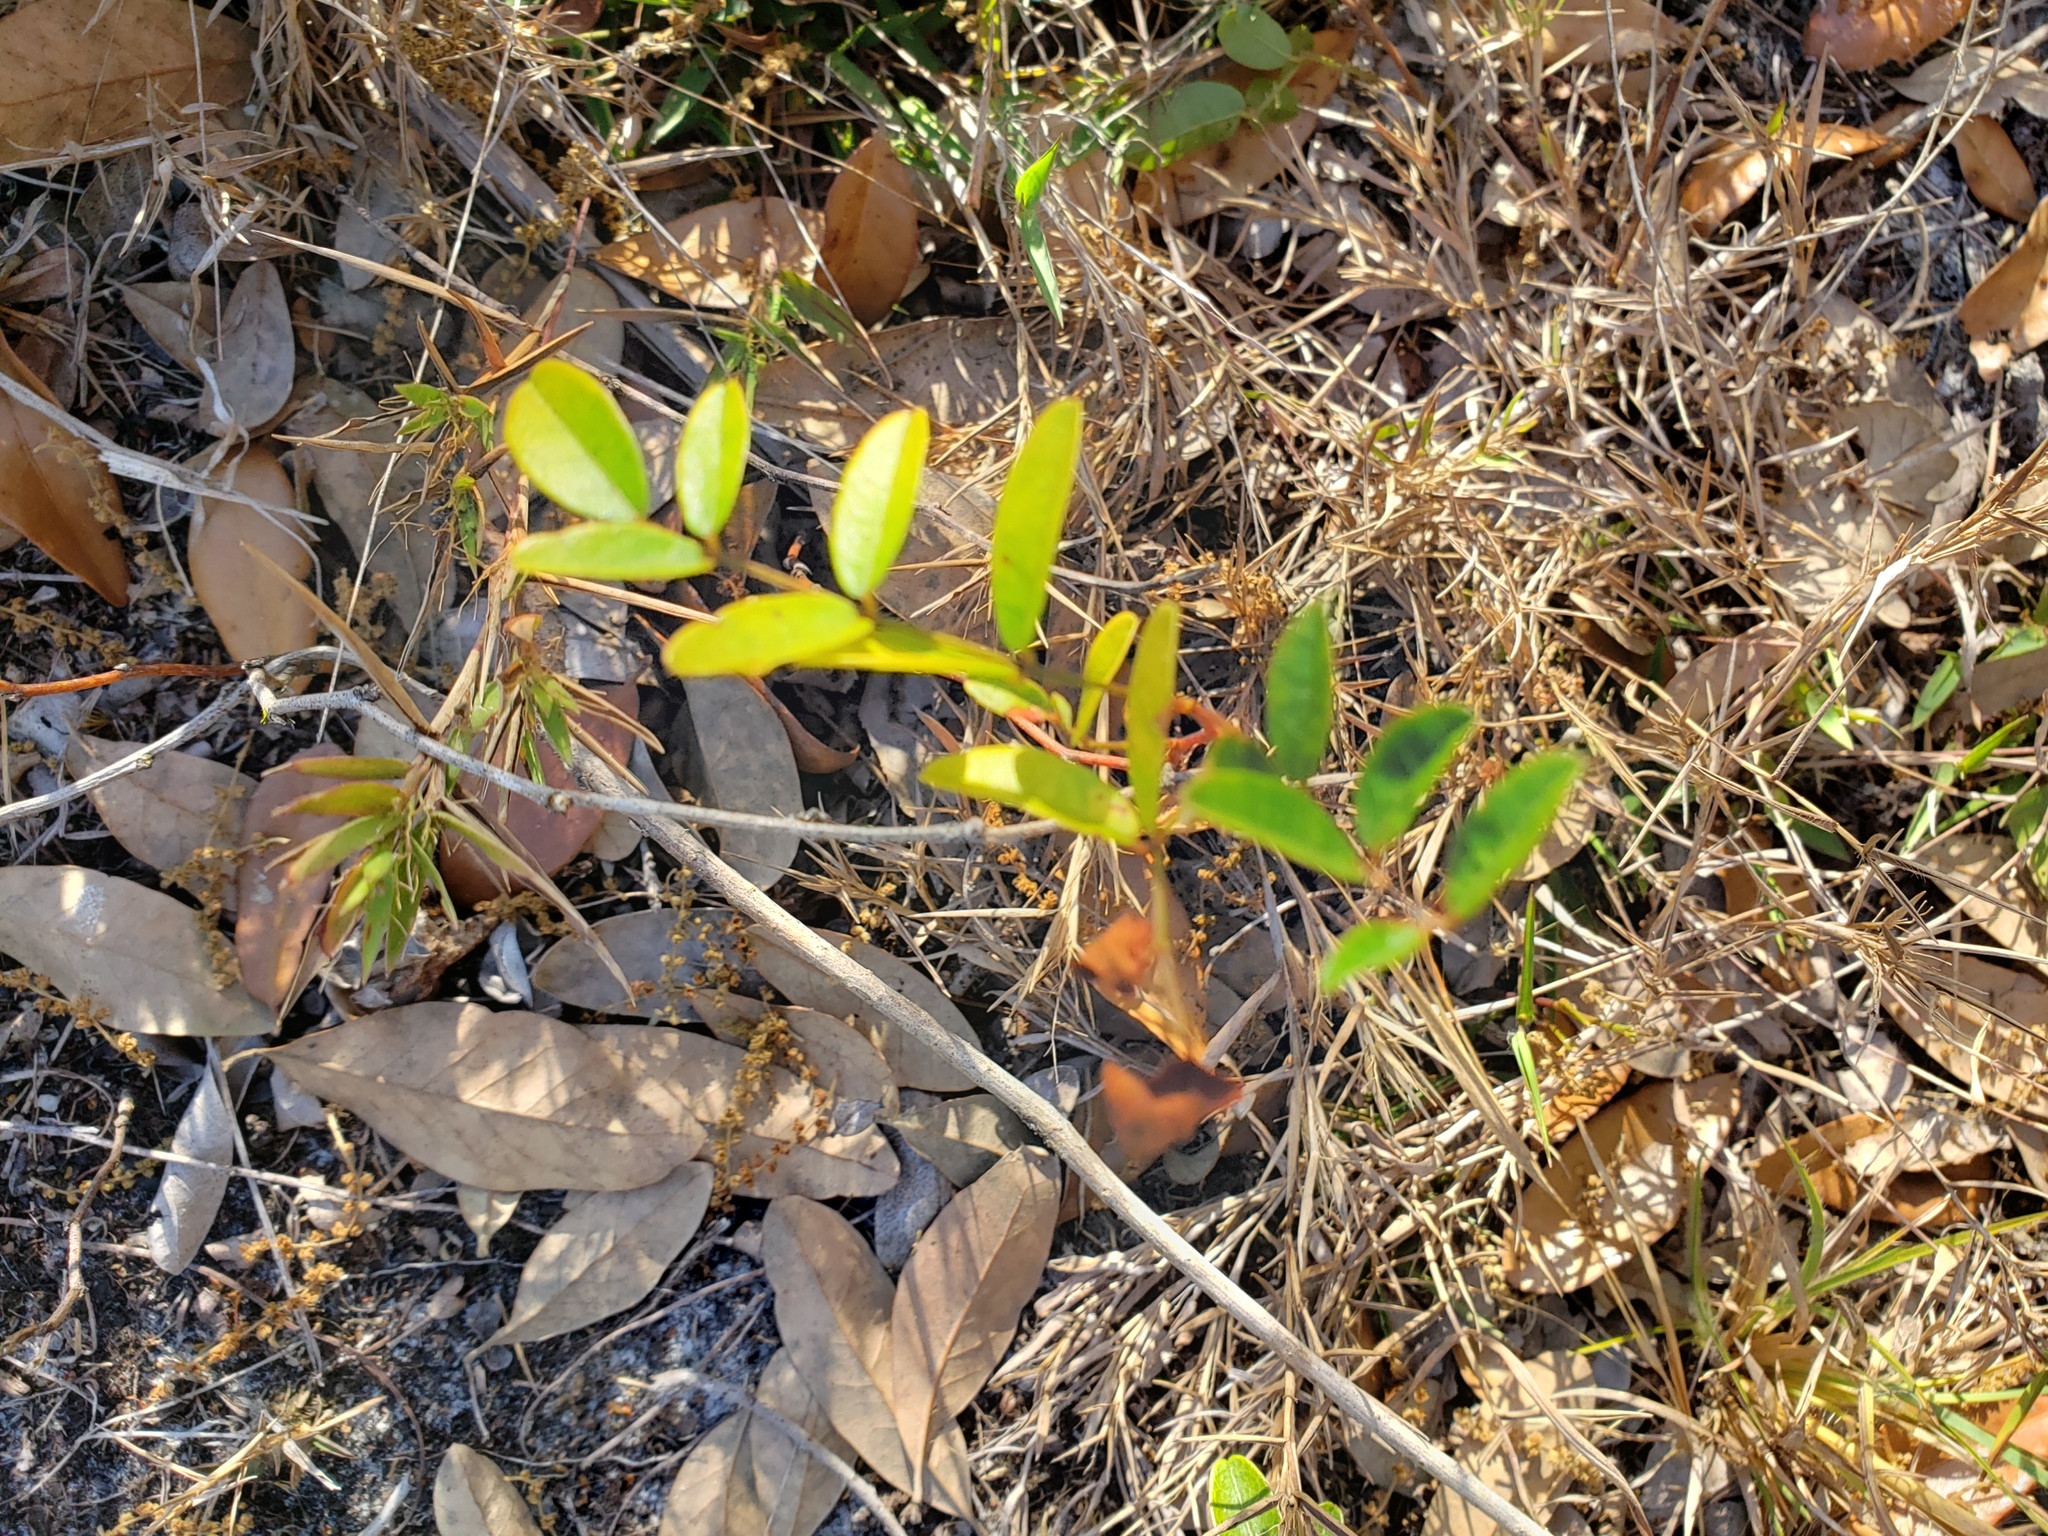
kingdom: Plantae
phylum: Tracheophyta
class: Magnoliopsida
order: Fabales
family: Fabaceae
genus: Galactia
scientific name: Galactia elliottii
